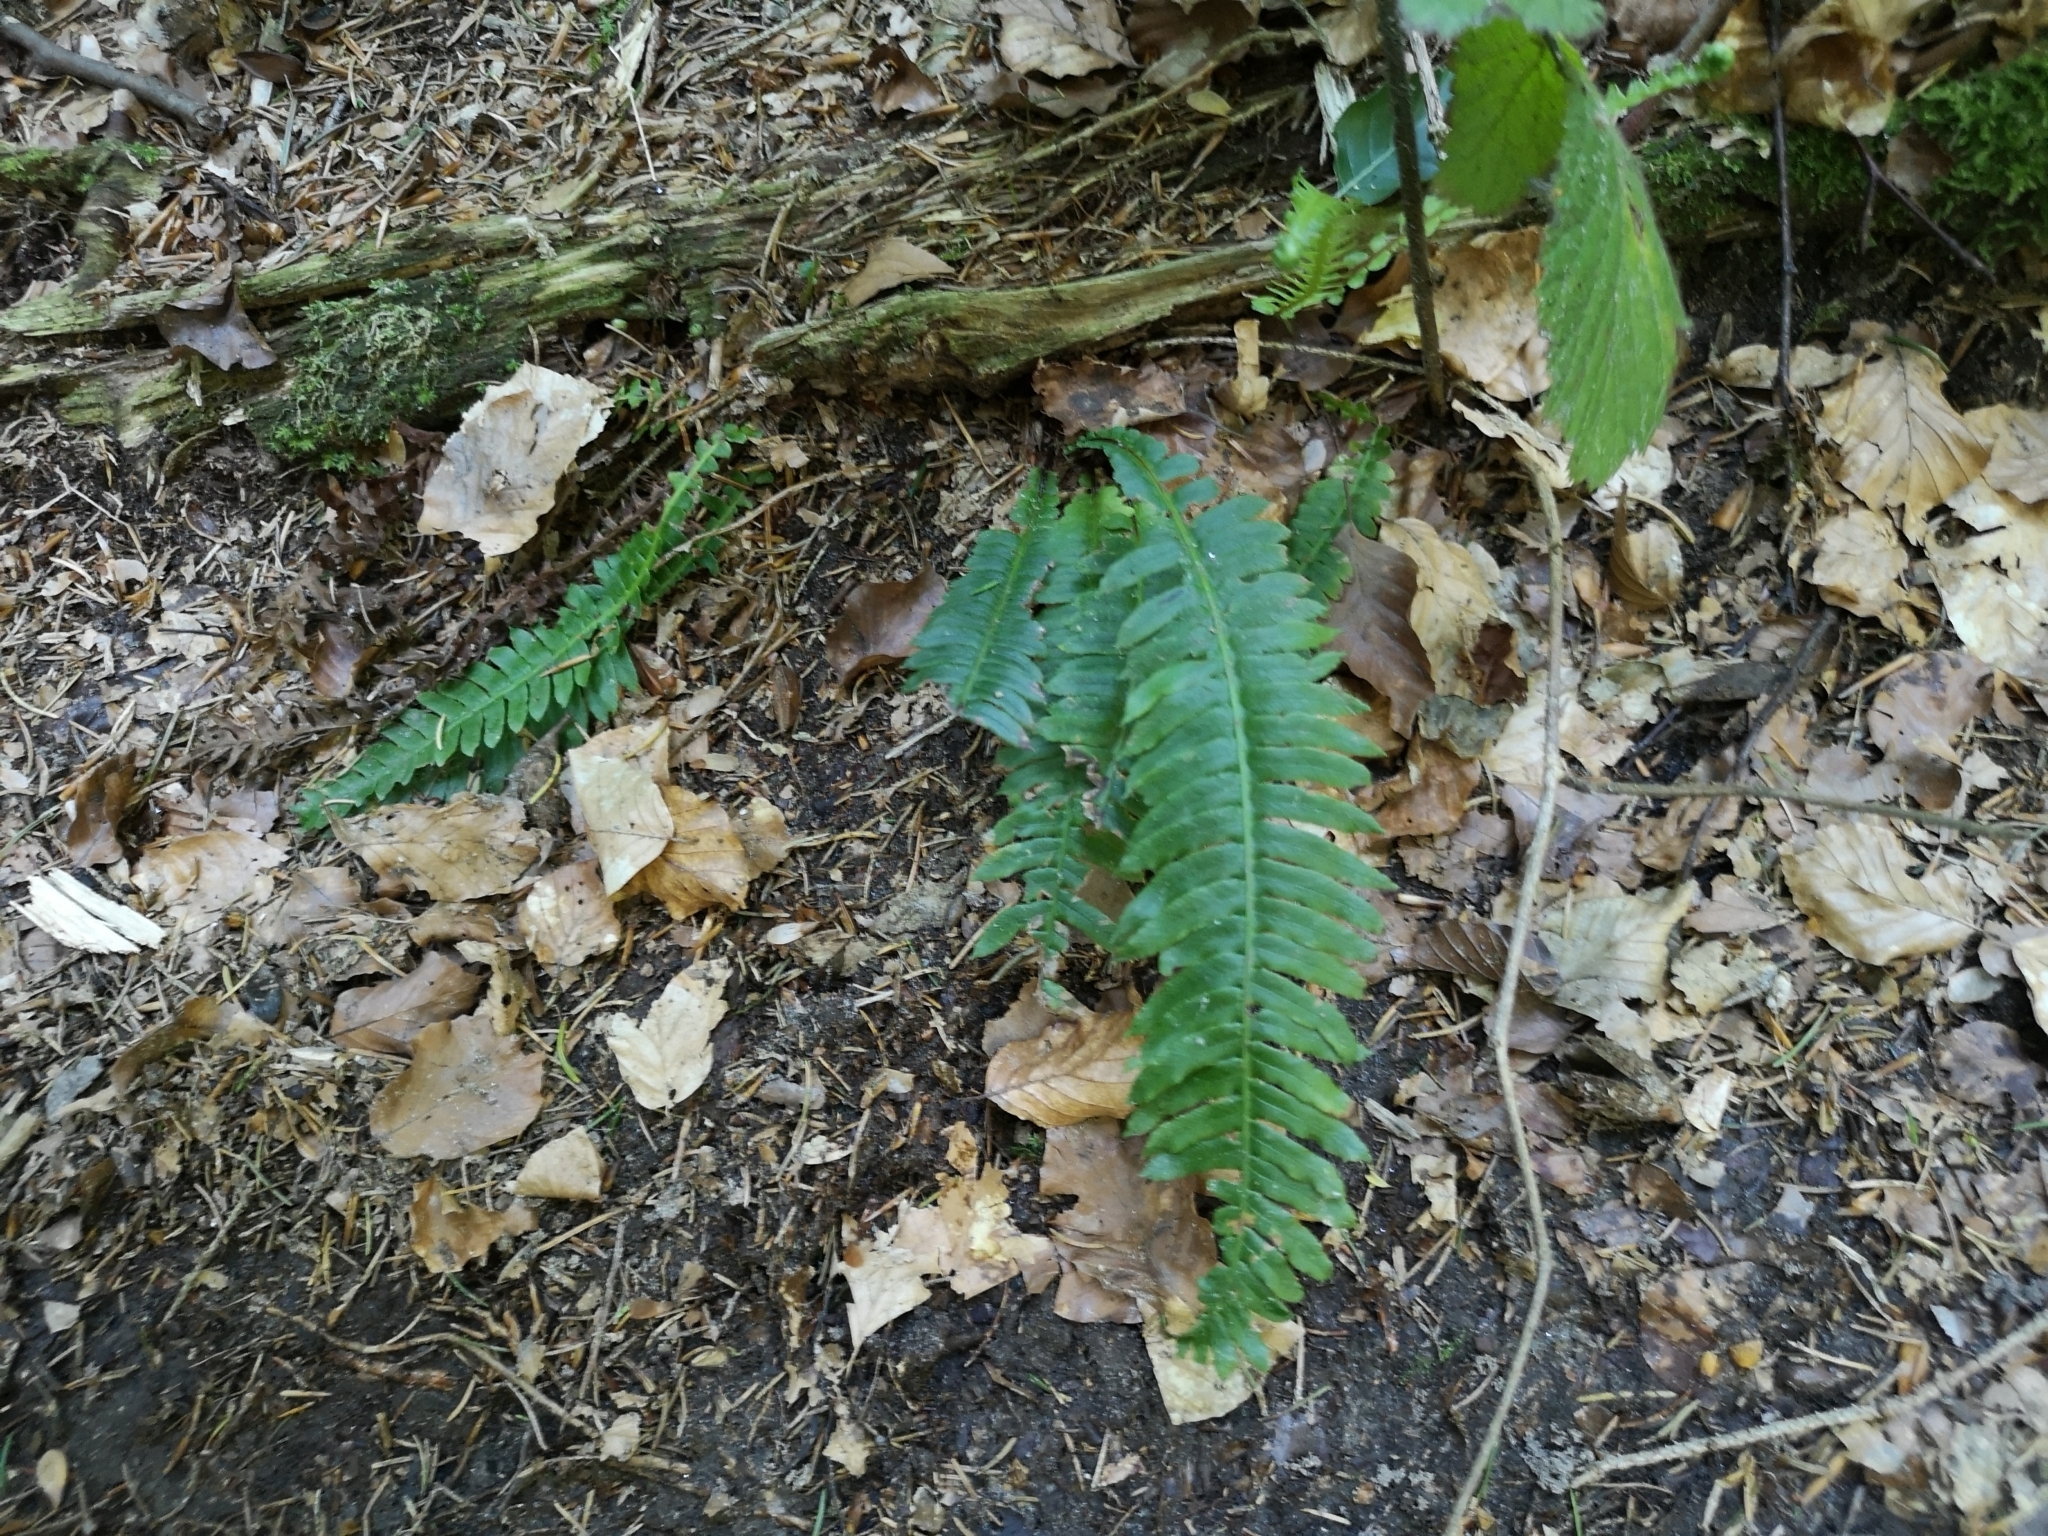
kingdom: Plantae
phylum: Tracheophyta
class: Polypodiopsida
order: Polypodiales
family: Blechnaceae
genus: Struthiopteris
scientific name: Struthiopteris spicant
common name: Deer fern
